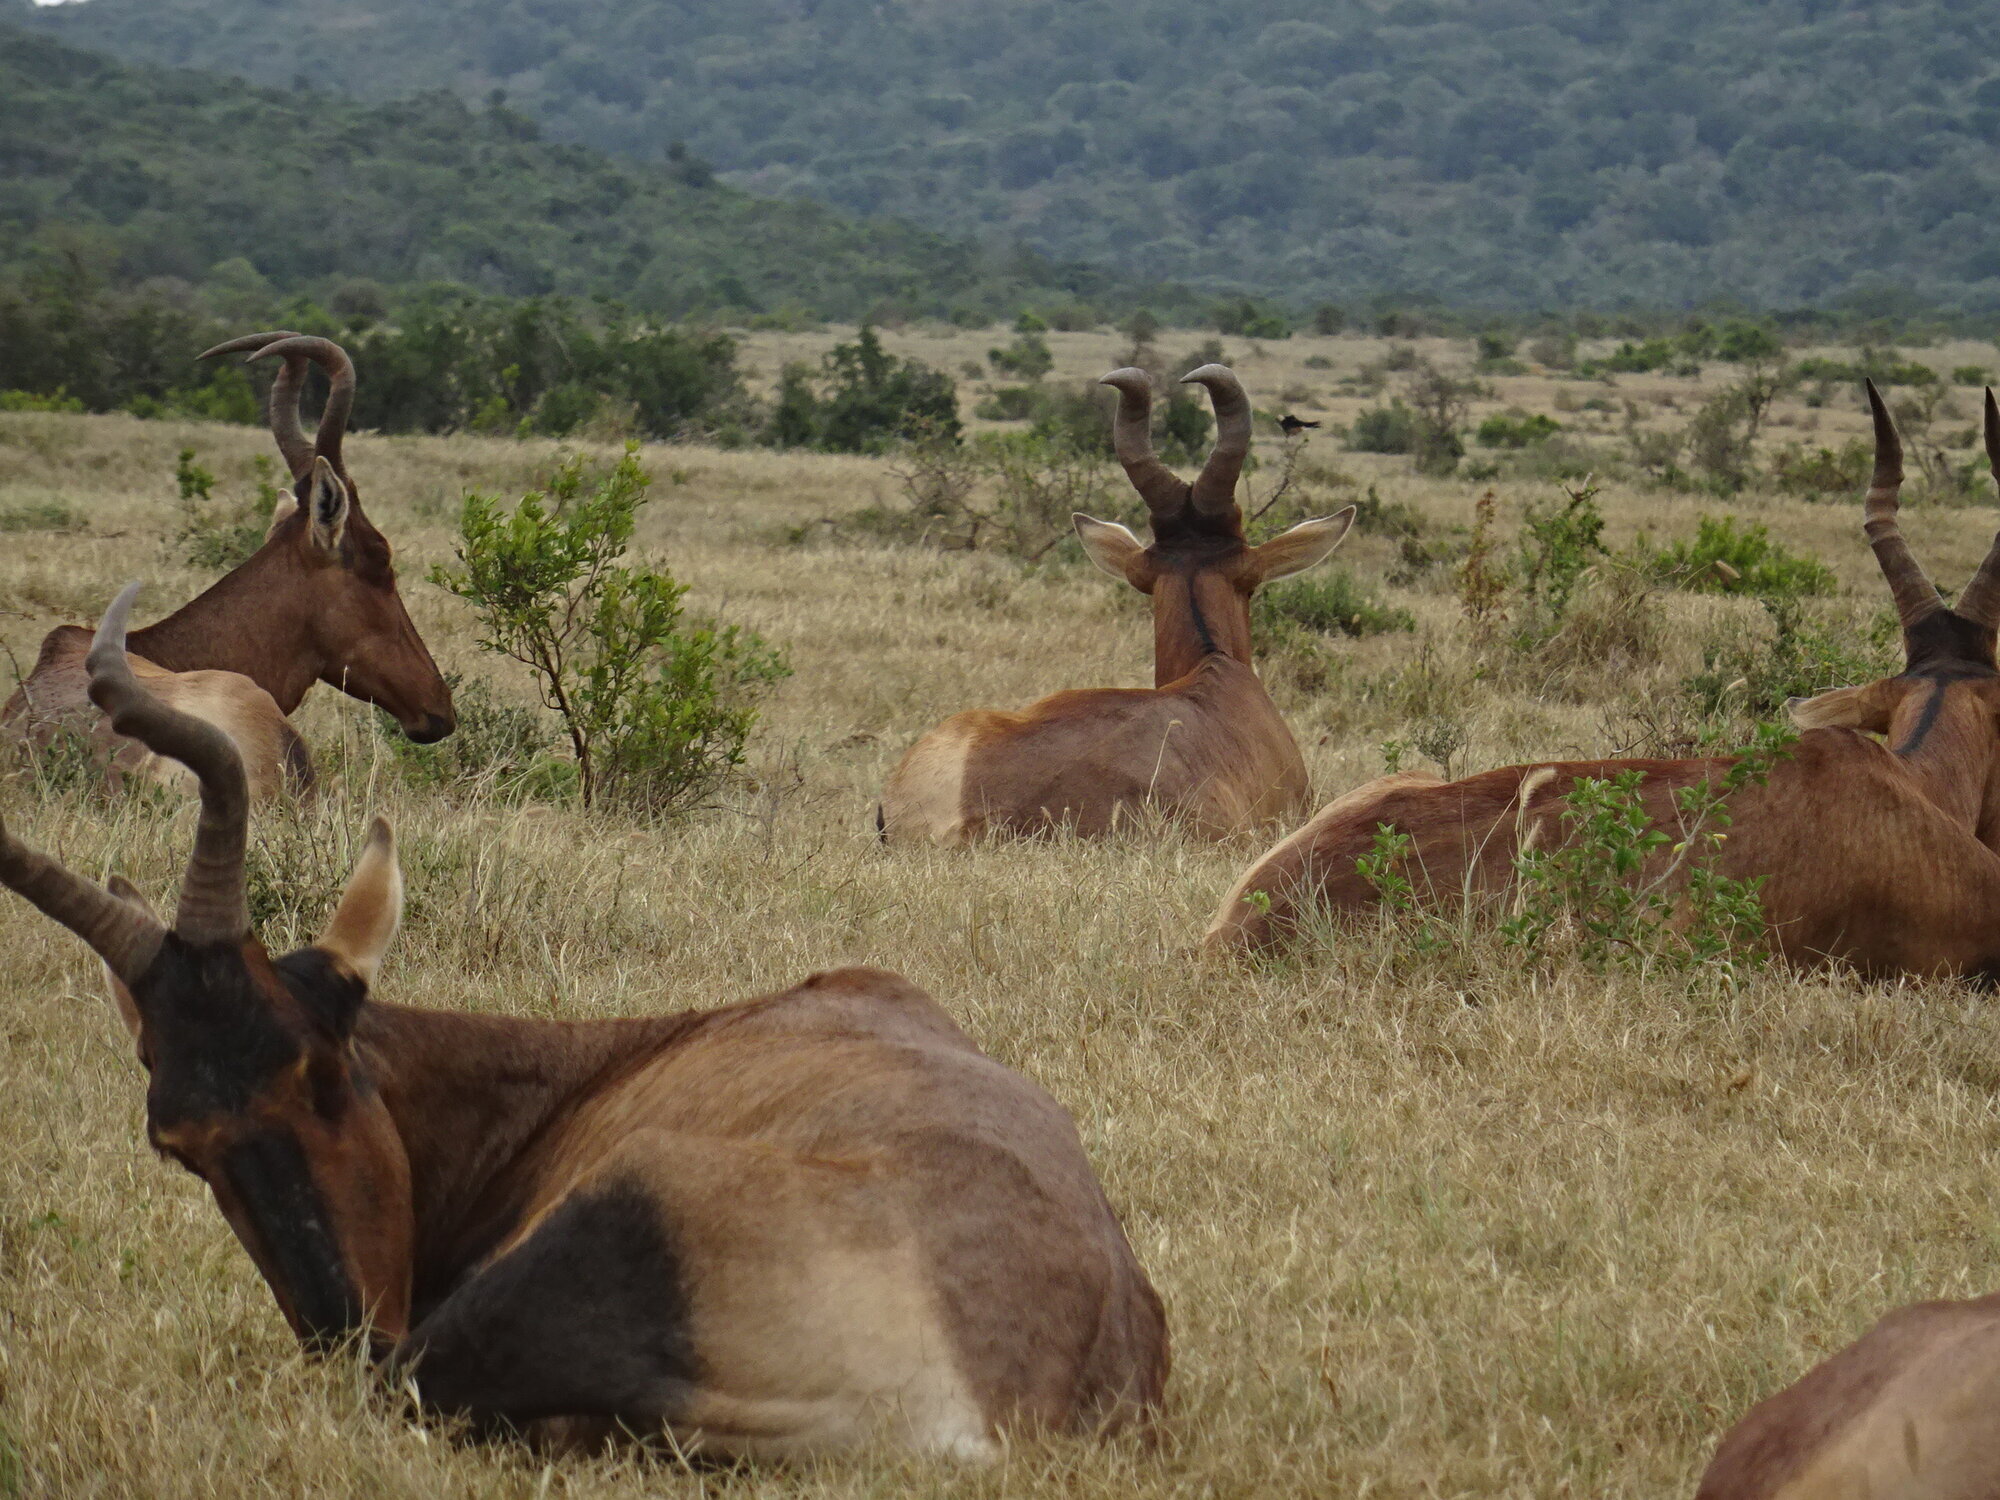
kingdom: Animalia
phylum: Chordata
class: Mammalia
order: Artiodactyla
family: Bovidae
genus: Alcelaphus
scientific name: Alcelaphus caama
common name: Red hartebeest
